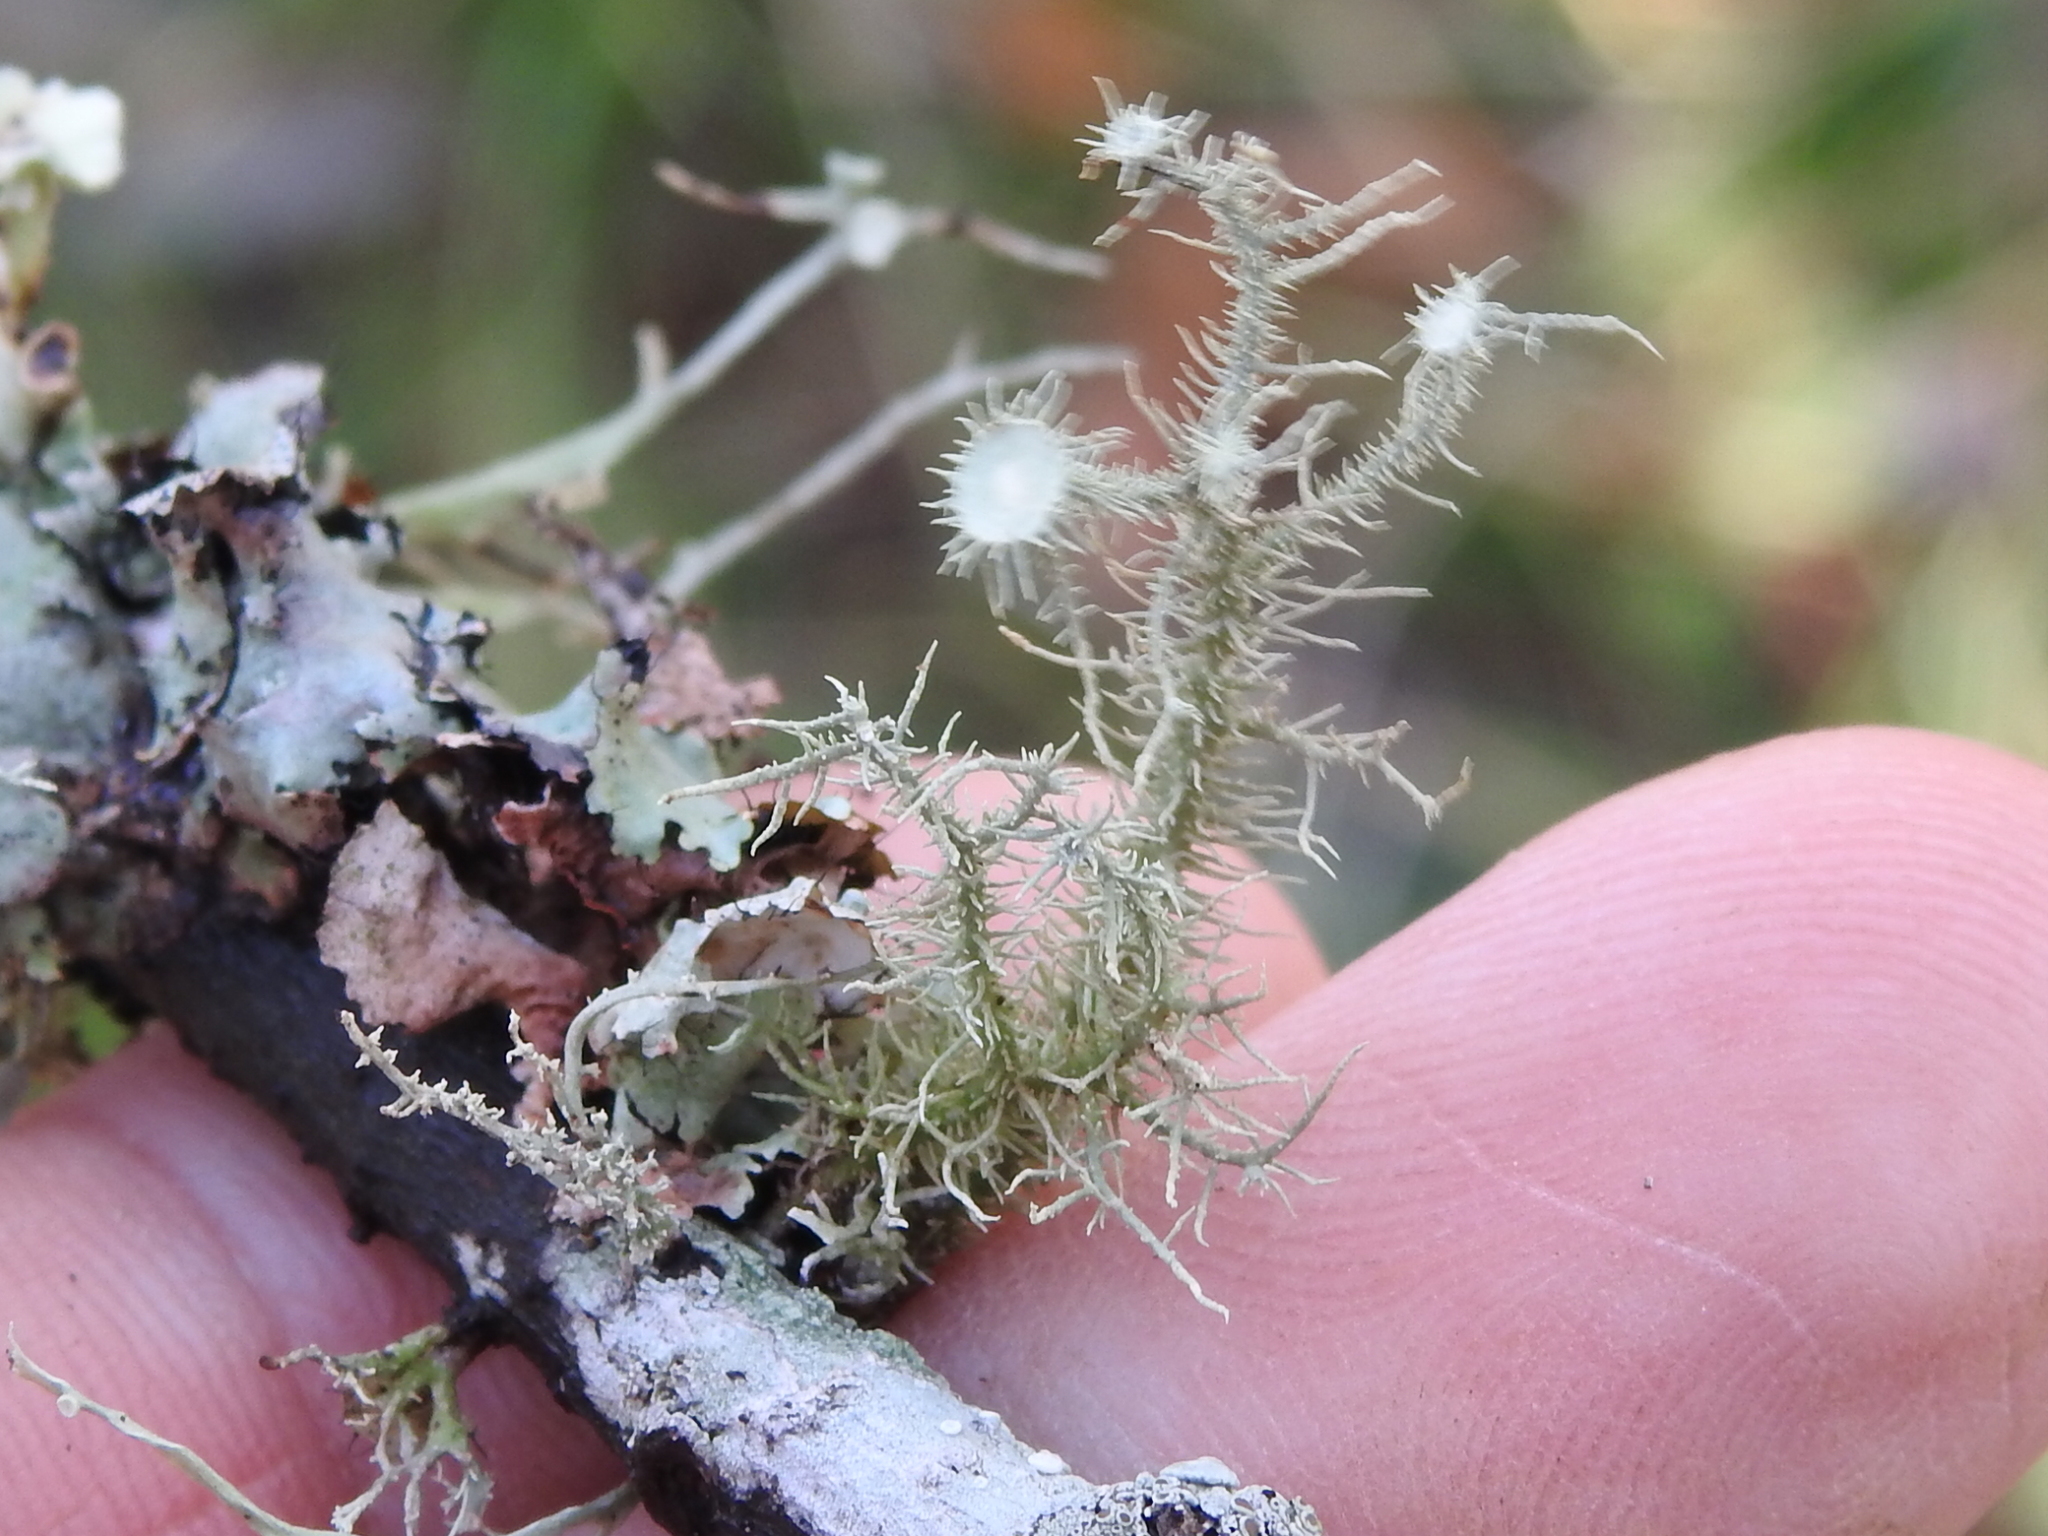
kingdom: Fungi
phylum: Ascomycota
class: Lecanoromycetes
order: Lecanorales
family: Parmeliaceae
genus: Usnea
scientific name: Usnea strigosa
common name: Bushy beard lichen
